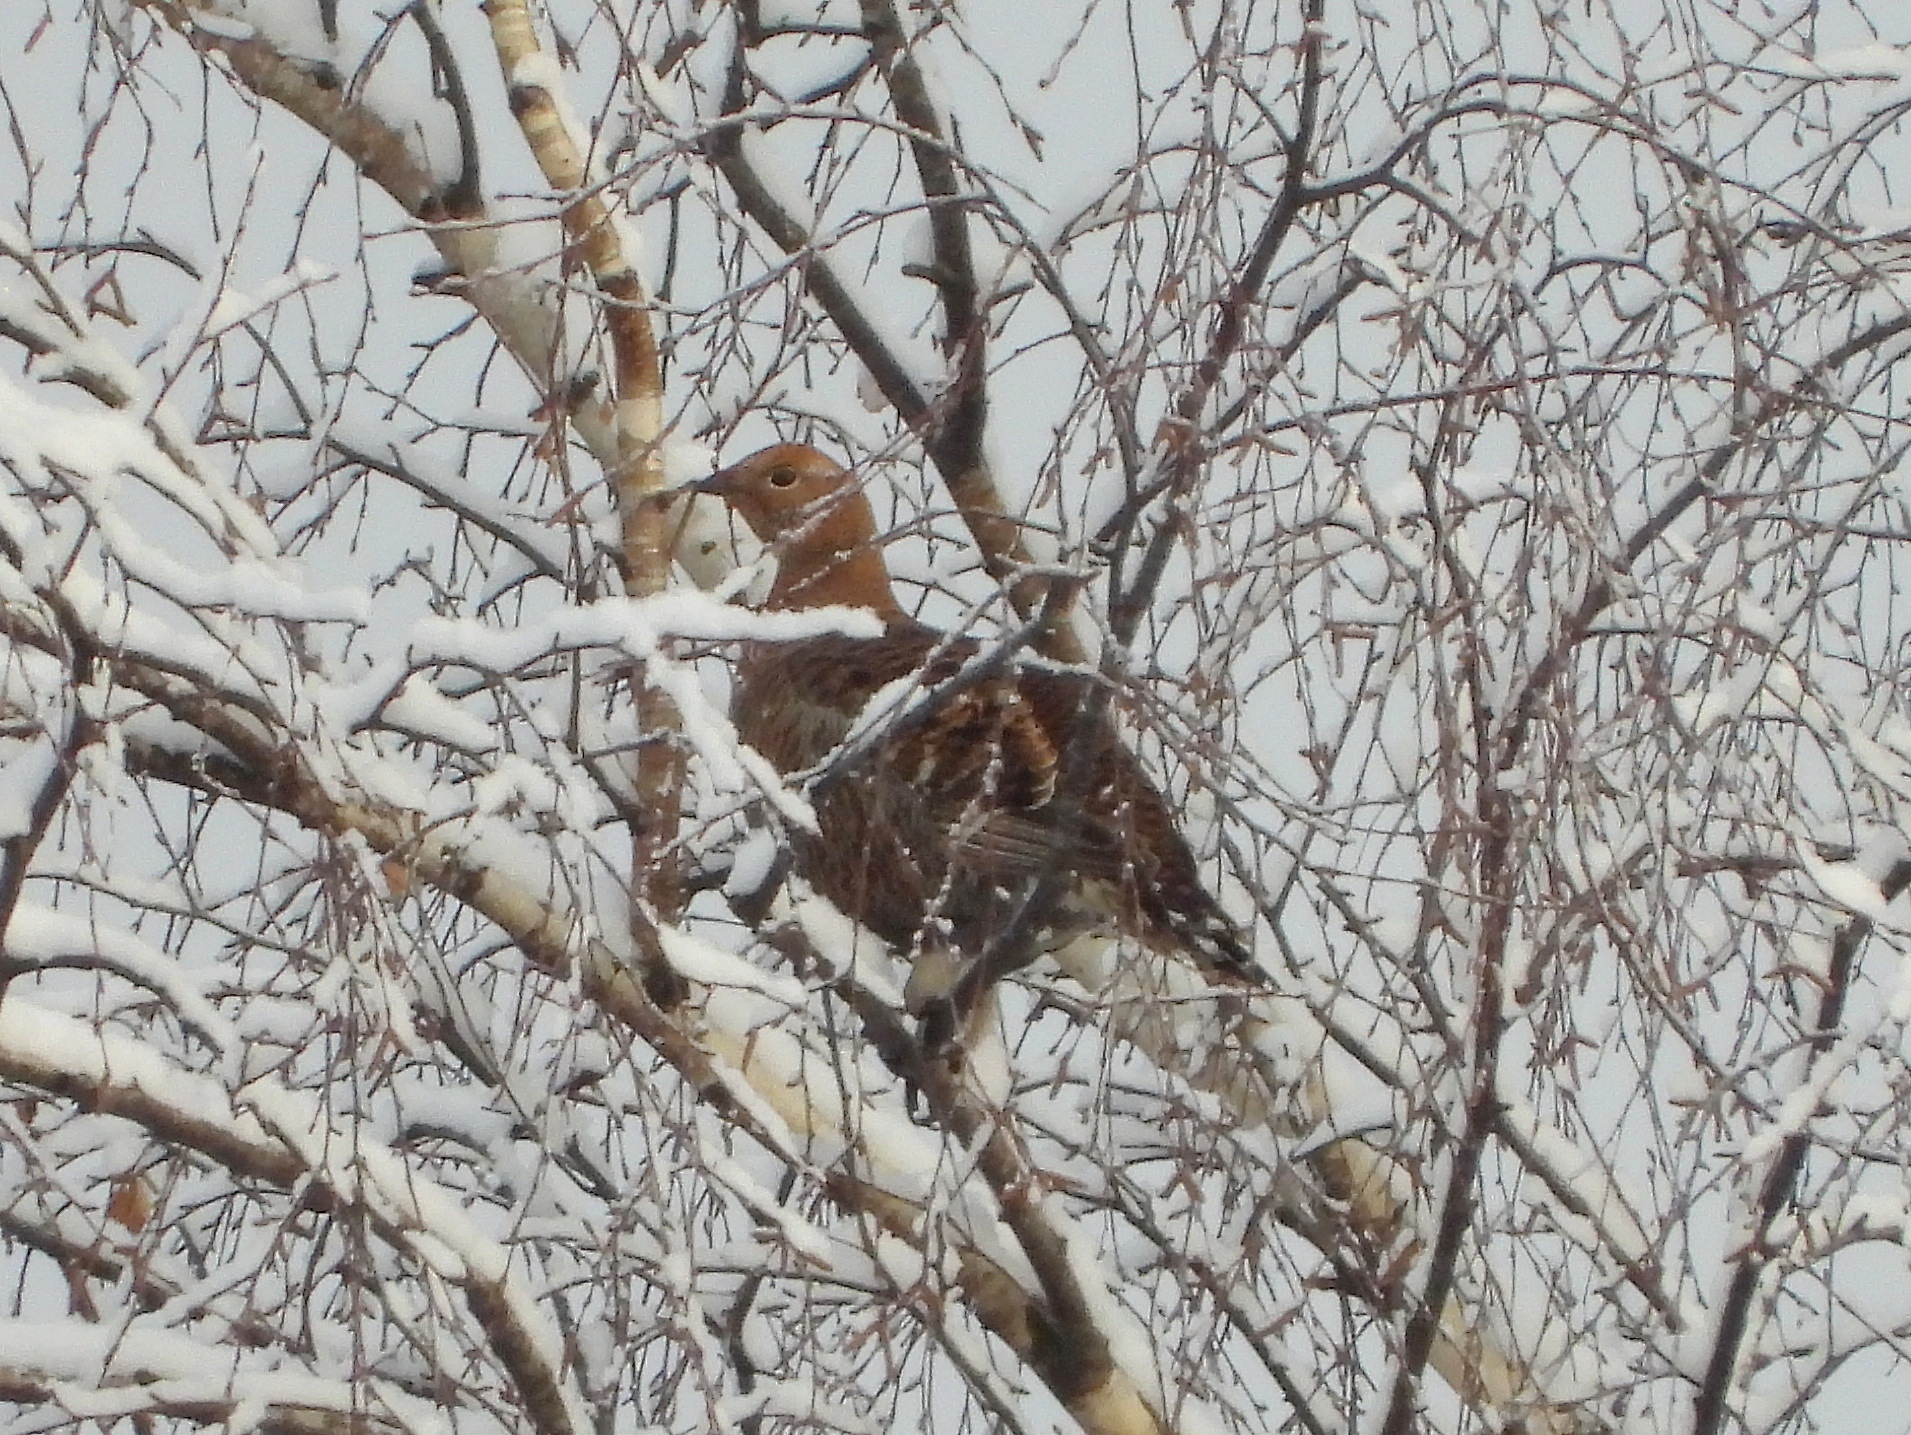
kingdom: Animalia
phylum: Chordata
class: Aves
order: Galliformes
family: Phasianidae
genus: Lyrurus
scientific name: Lyrurus tetrix
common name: Black grouse
